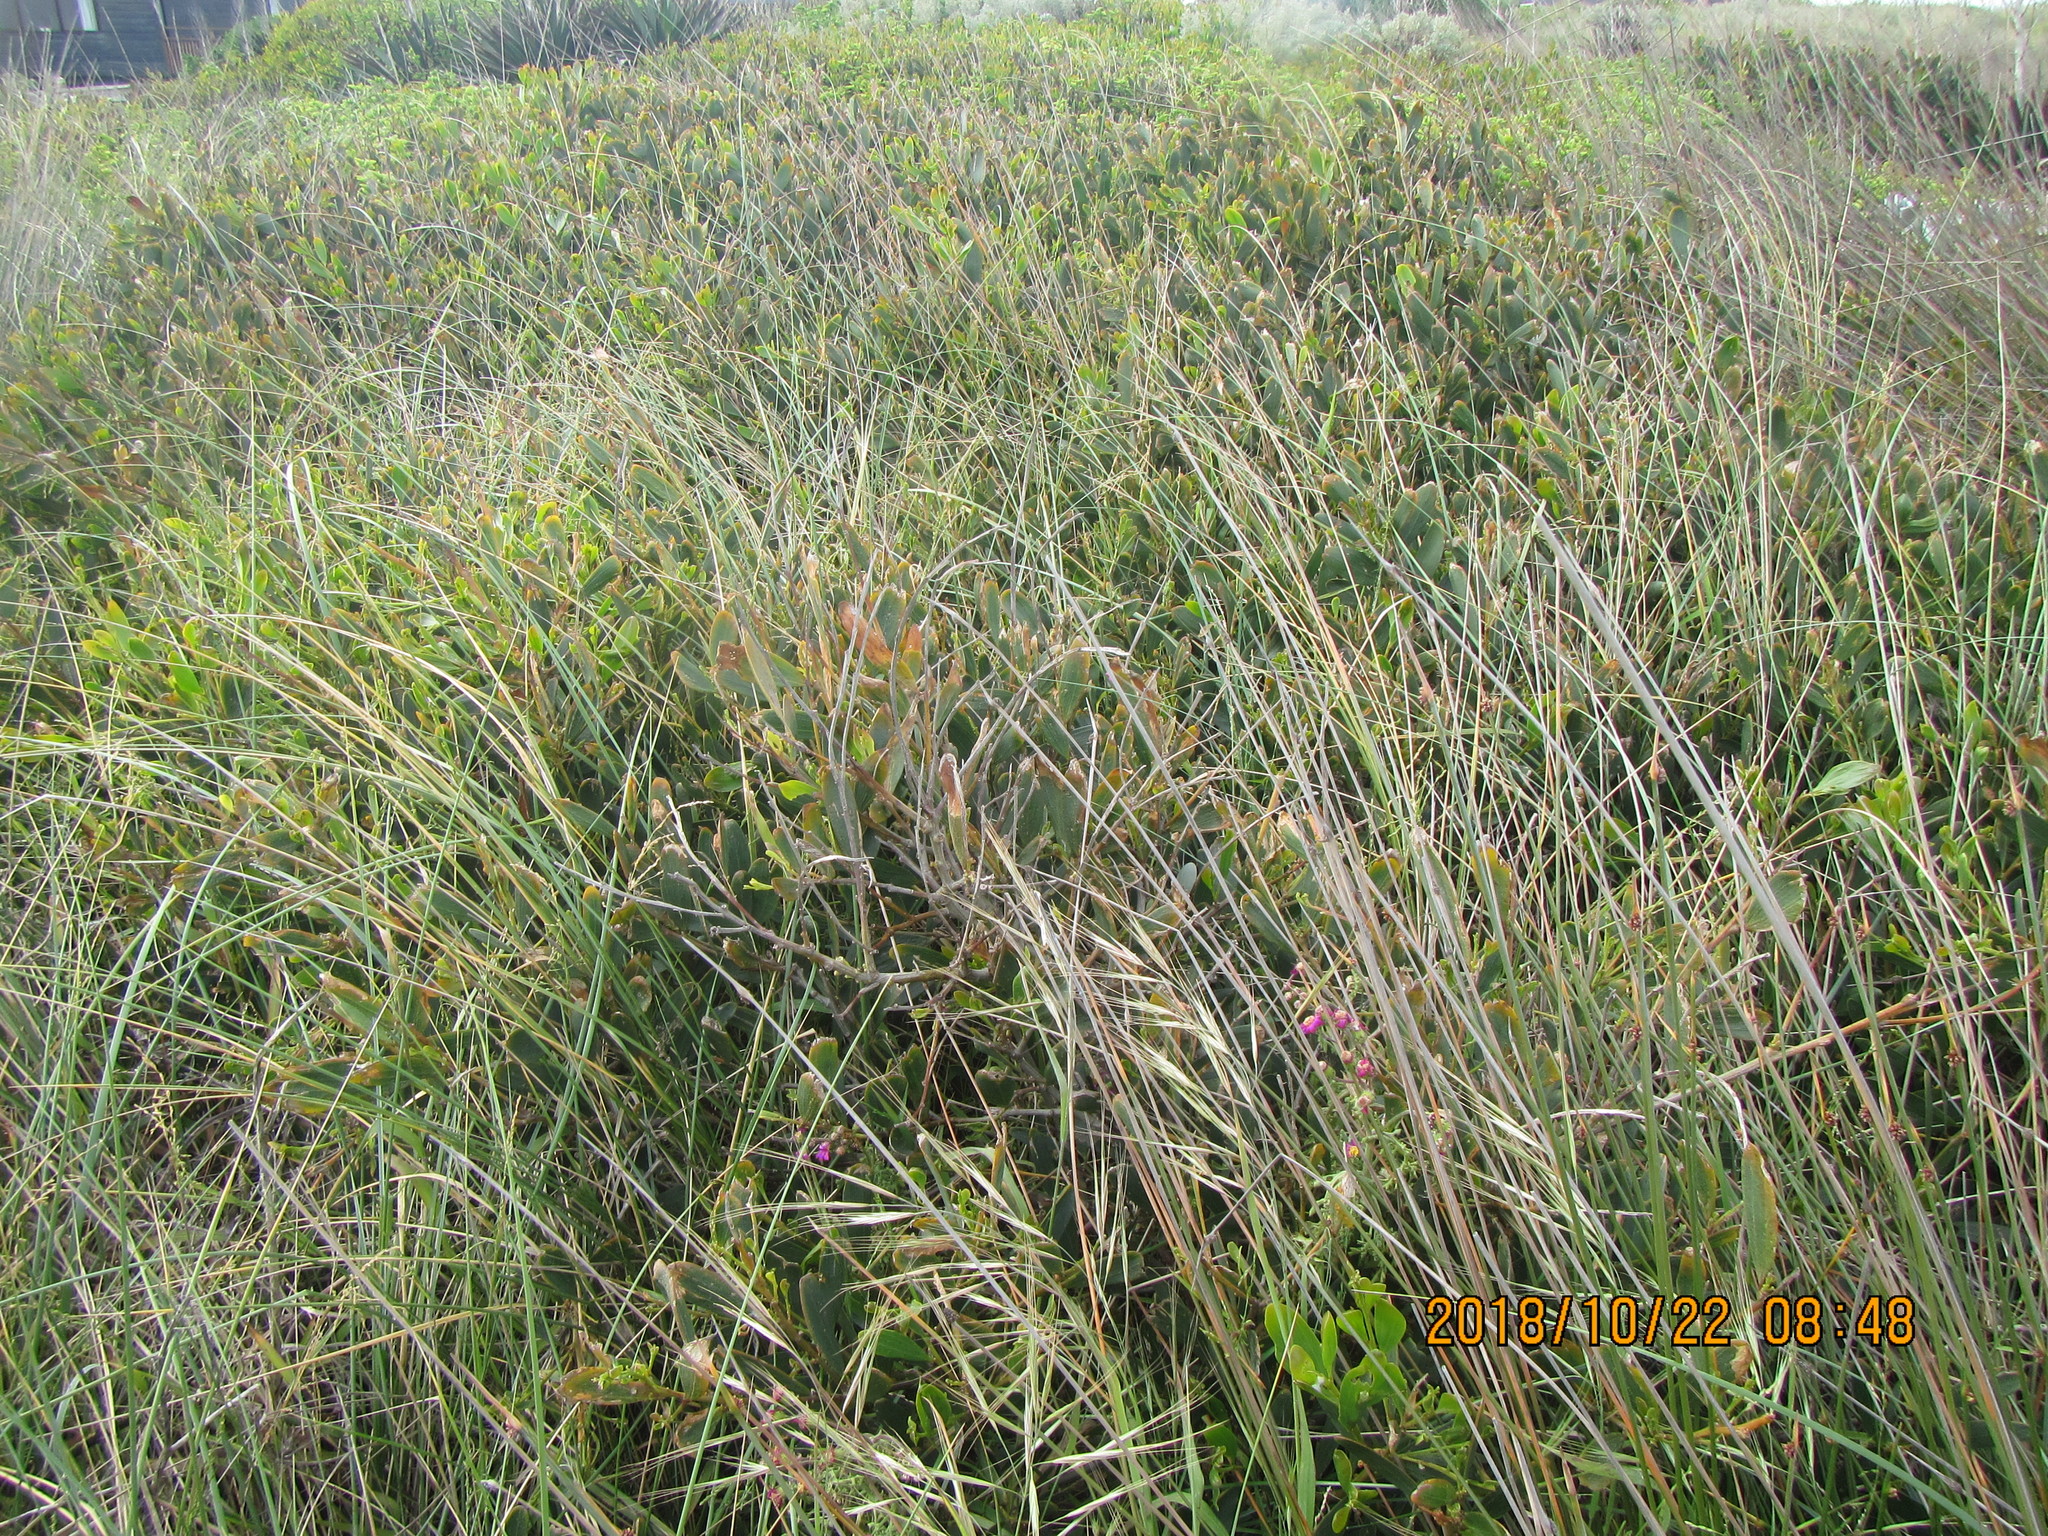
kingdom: Plantae
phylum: Tracheophyta
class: Magnoliopsida
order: Fabales
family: Fabaceae
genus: Acacia
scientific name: Acacia longifolia
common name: Sydney golden wattle
